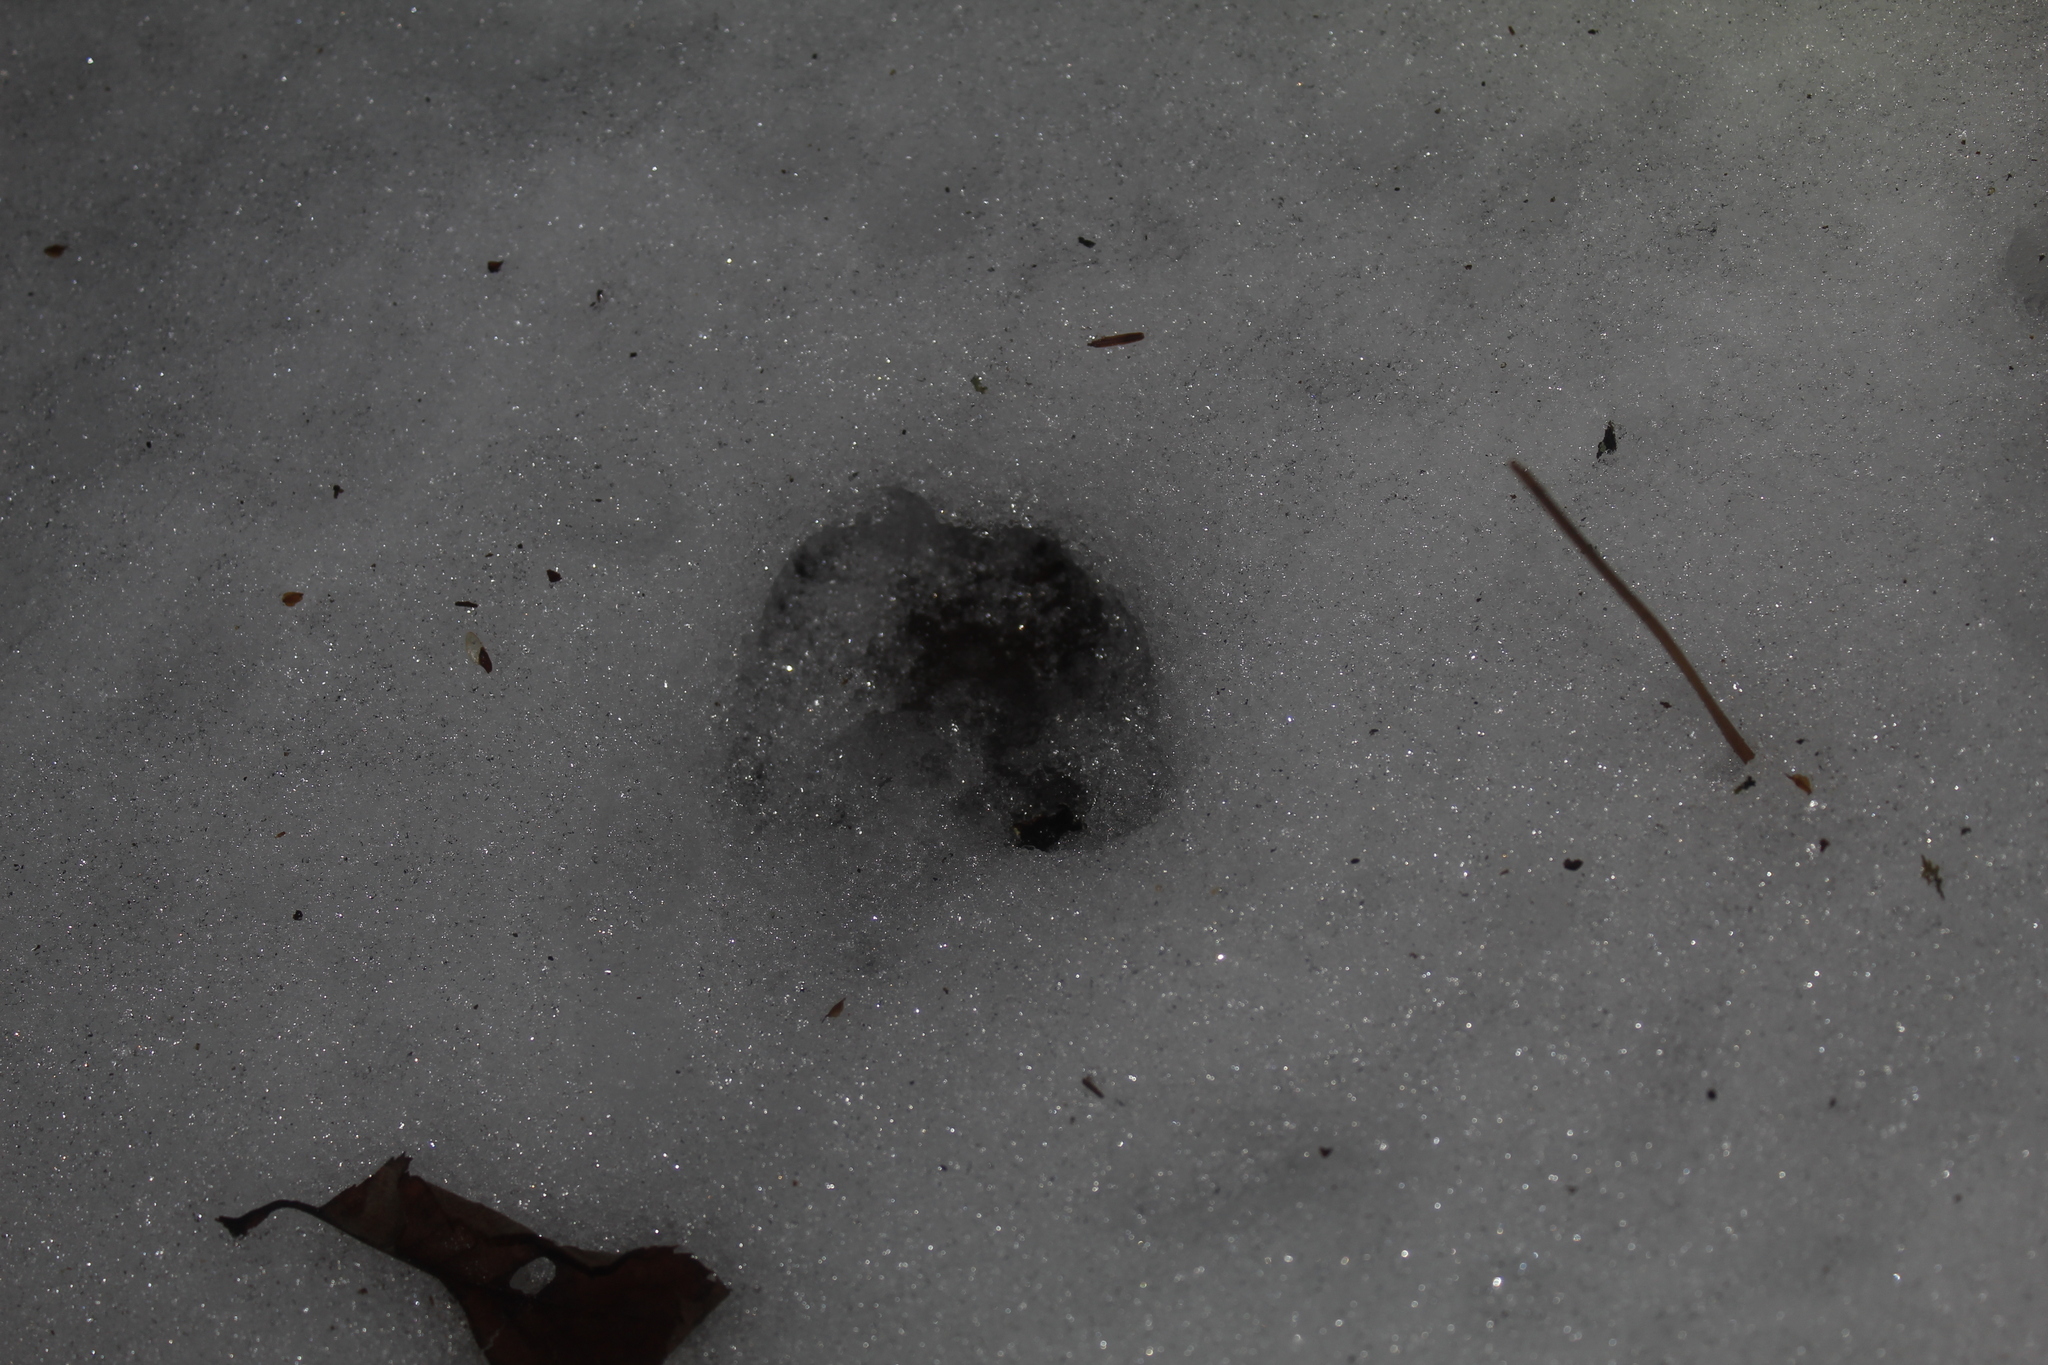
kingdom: Animalia
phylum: Chordata
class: Mammalia
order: Artiodactyla
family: Cervidae
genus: Odocoileus
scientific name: Odocoileus virginianus
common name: White-tailed deer
